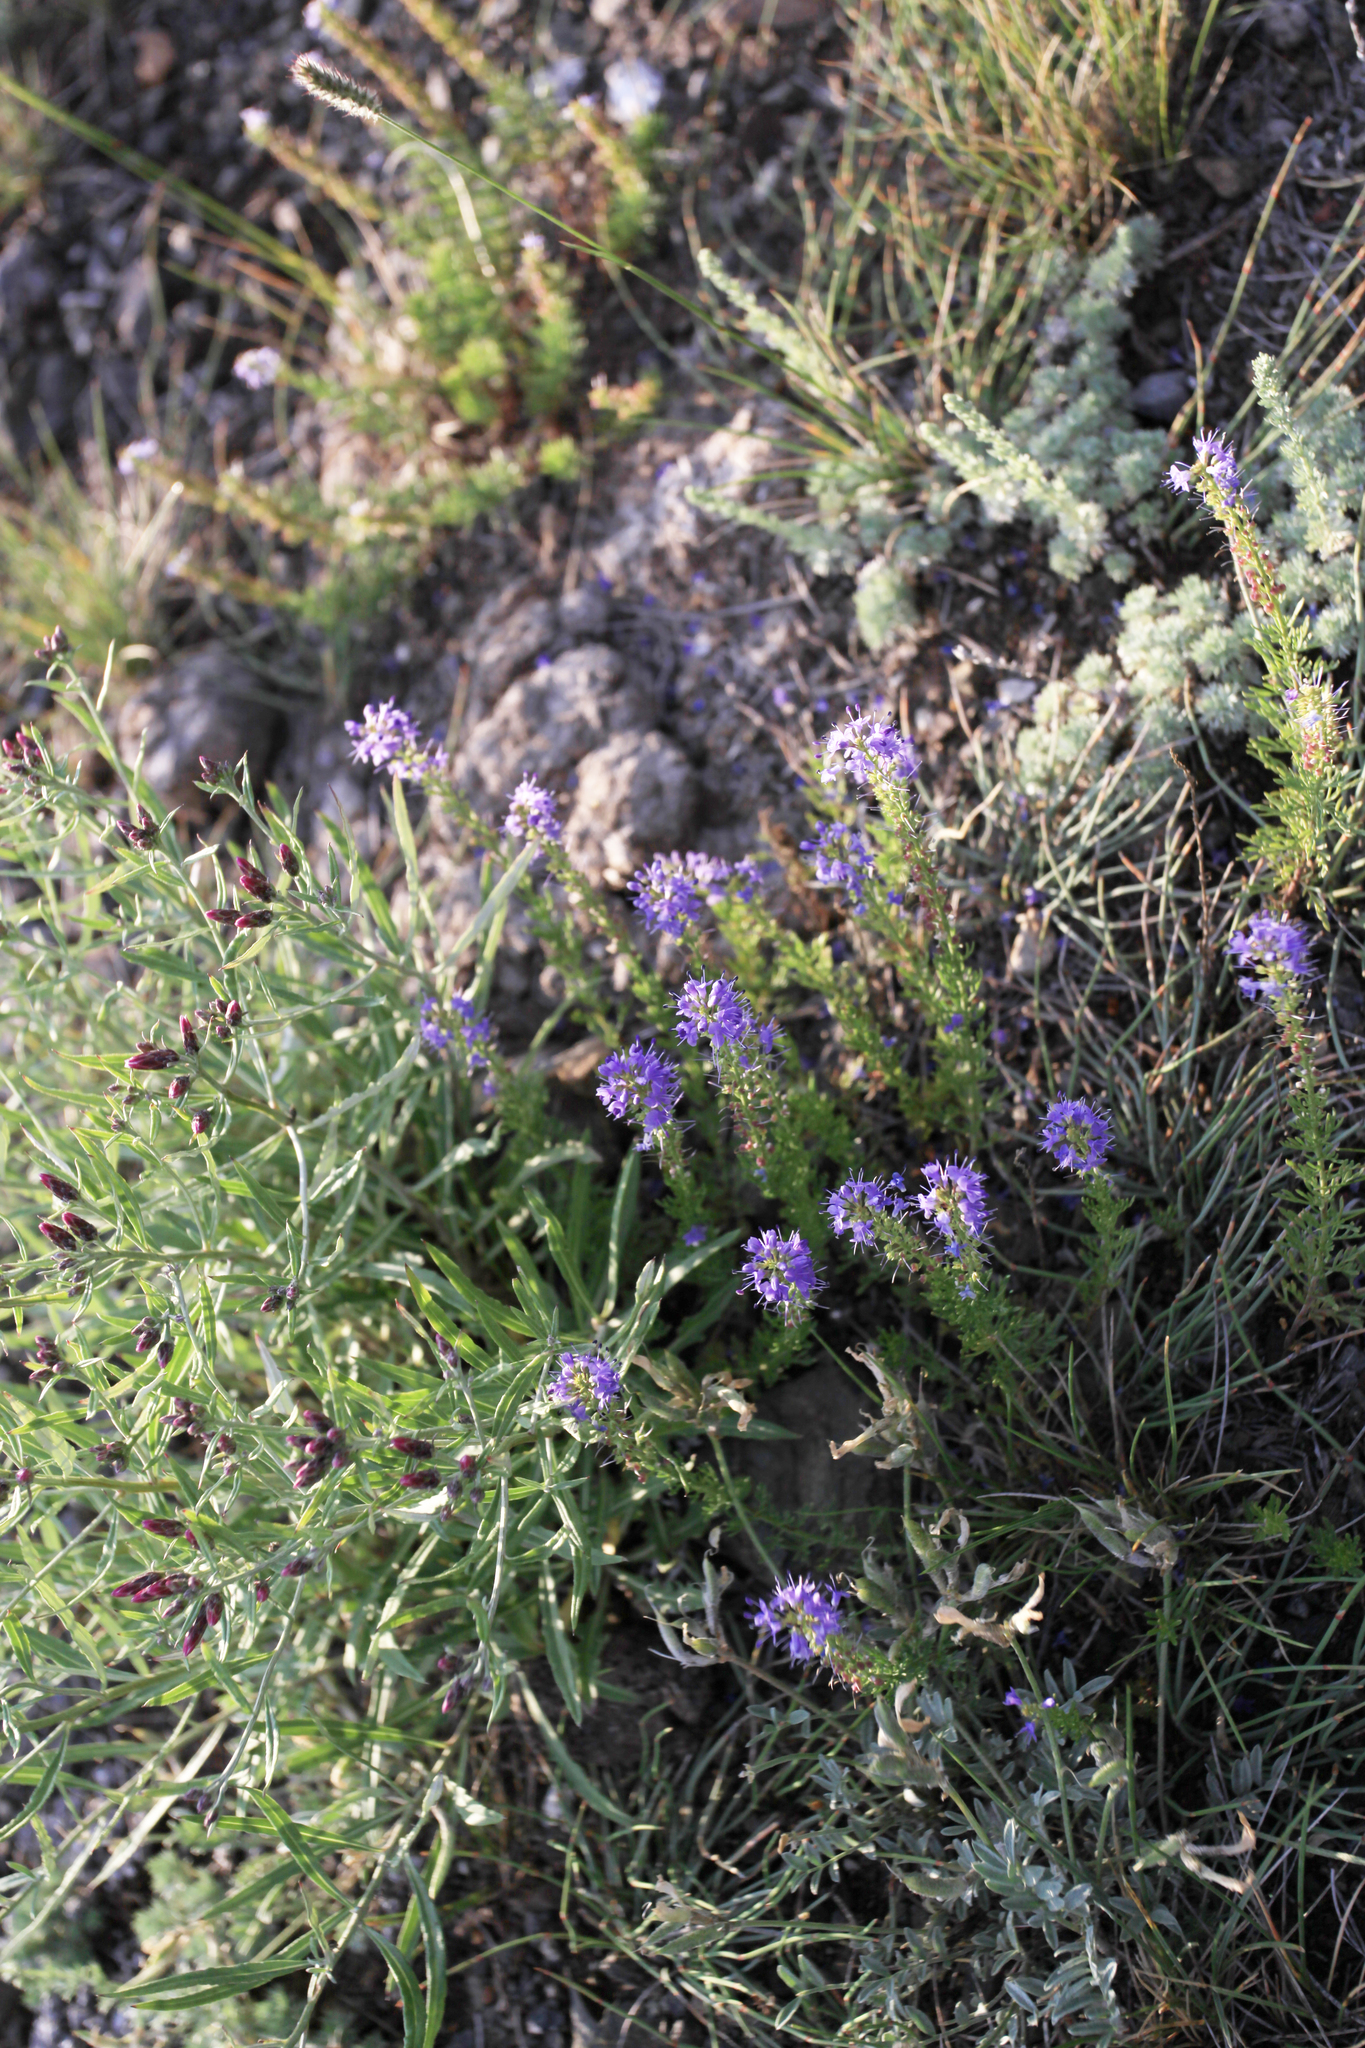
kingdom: Plantae
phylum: Tracheophyta
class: Magnoliopsida
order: Lamiales
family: Plantaginaceae
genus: Veronica
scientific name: Veronica pinnata
